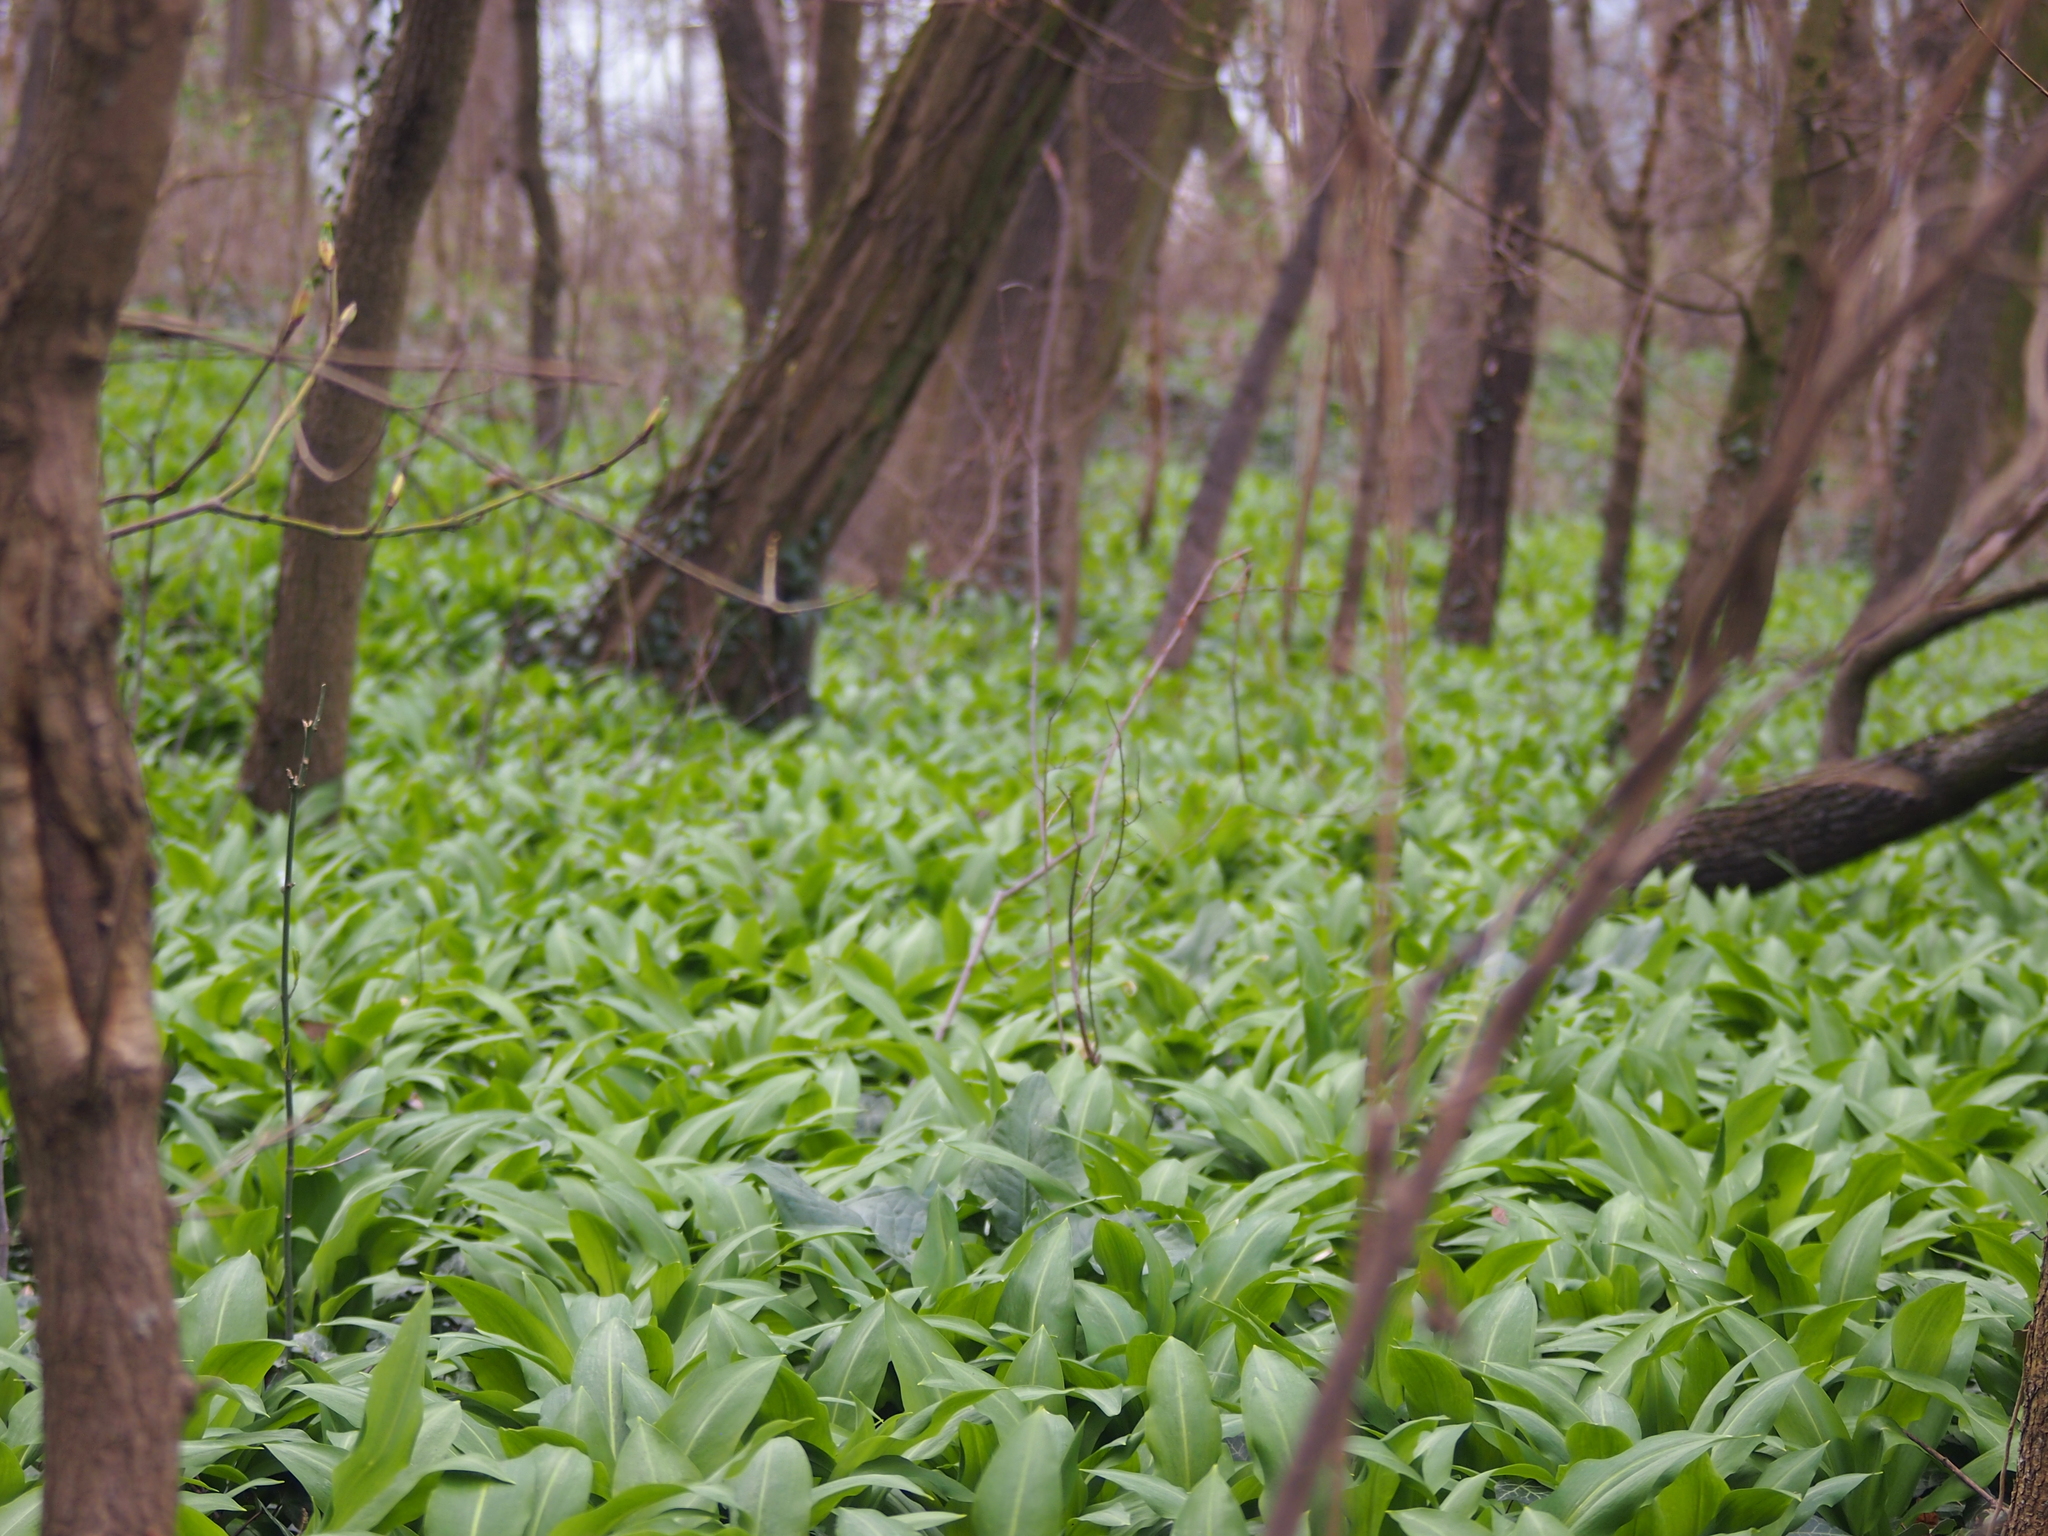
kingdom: Plantae
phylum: Tracheophyta
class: Liliopsida
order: Asparagales
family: Amaryllidaceae
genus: Allium
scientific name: Allium ursinum
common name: Ramsons
